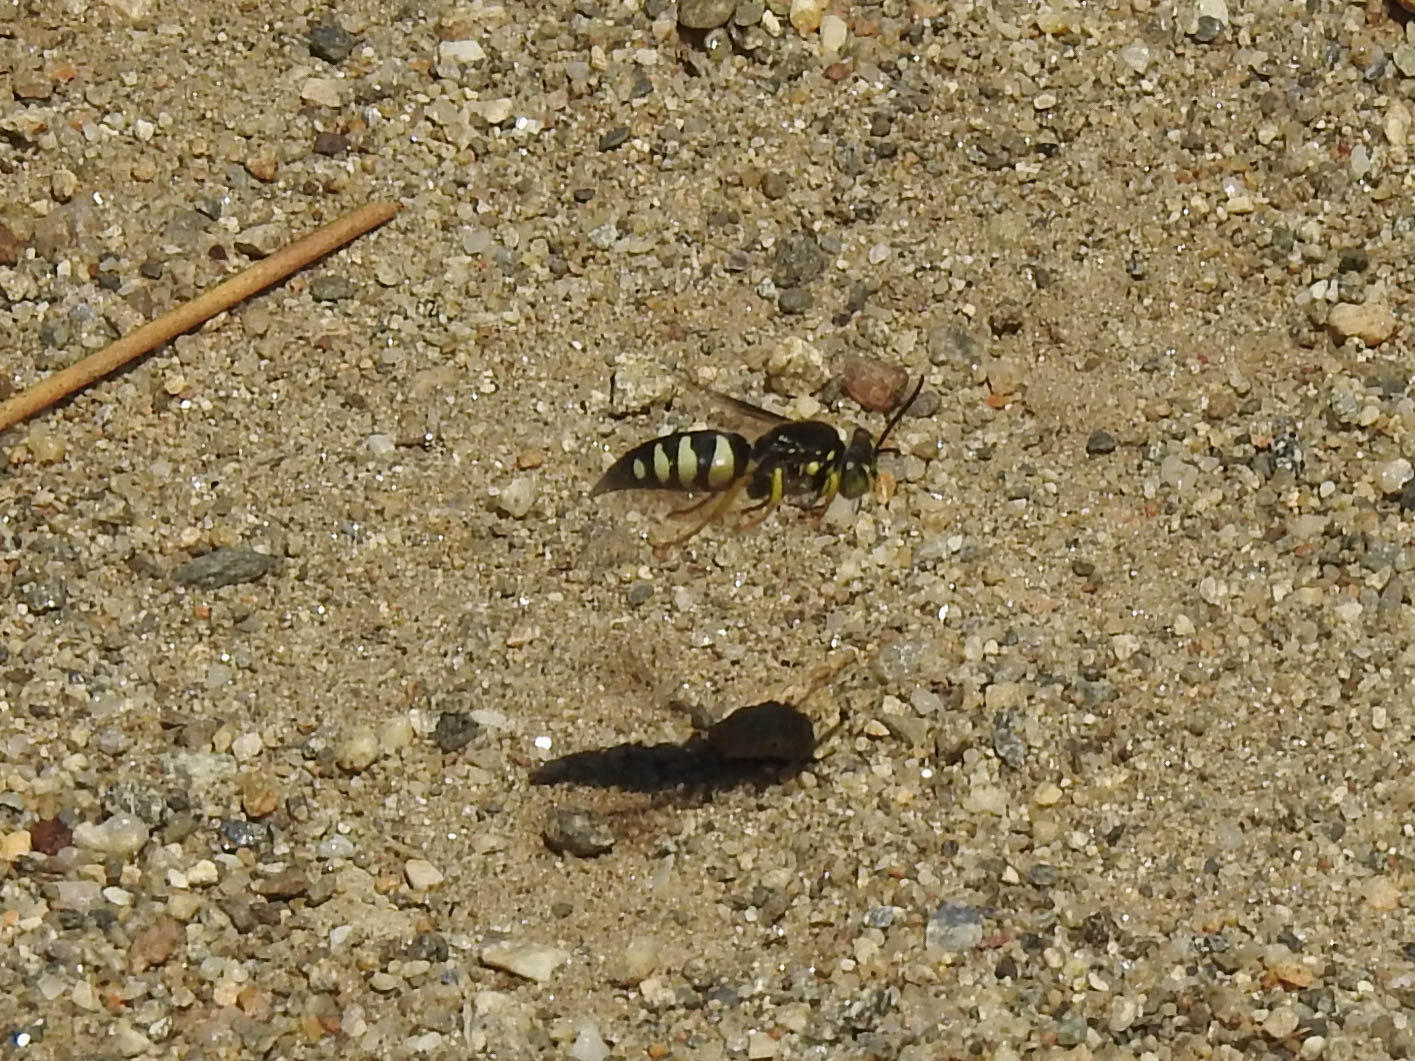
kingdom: Animalia
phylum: Arthropoda
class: Insecta
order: Hymenoptera
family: Crabronidae
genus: Bicyrtes
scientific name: Bicyrtes quadrifasciatus
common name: Four-banded stink bug hunter wasp
